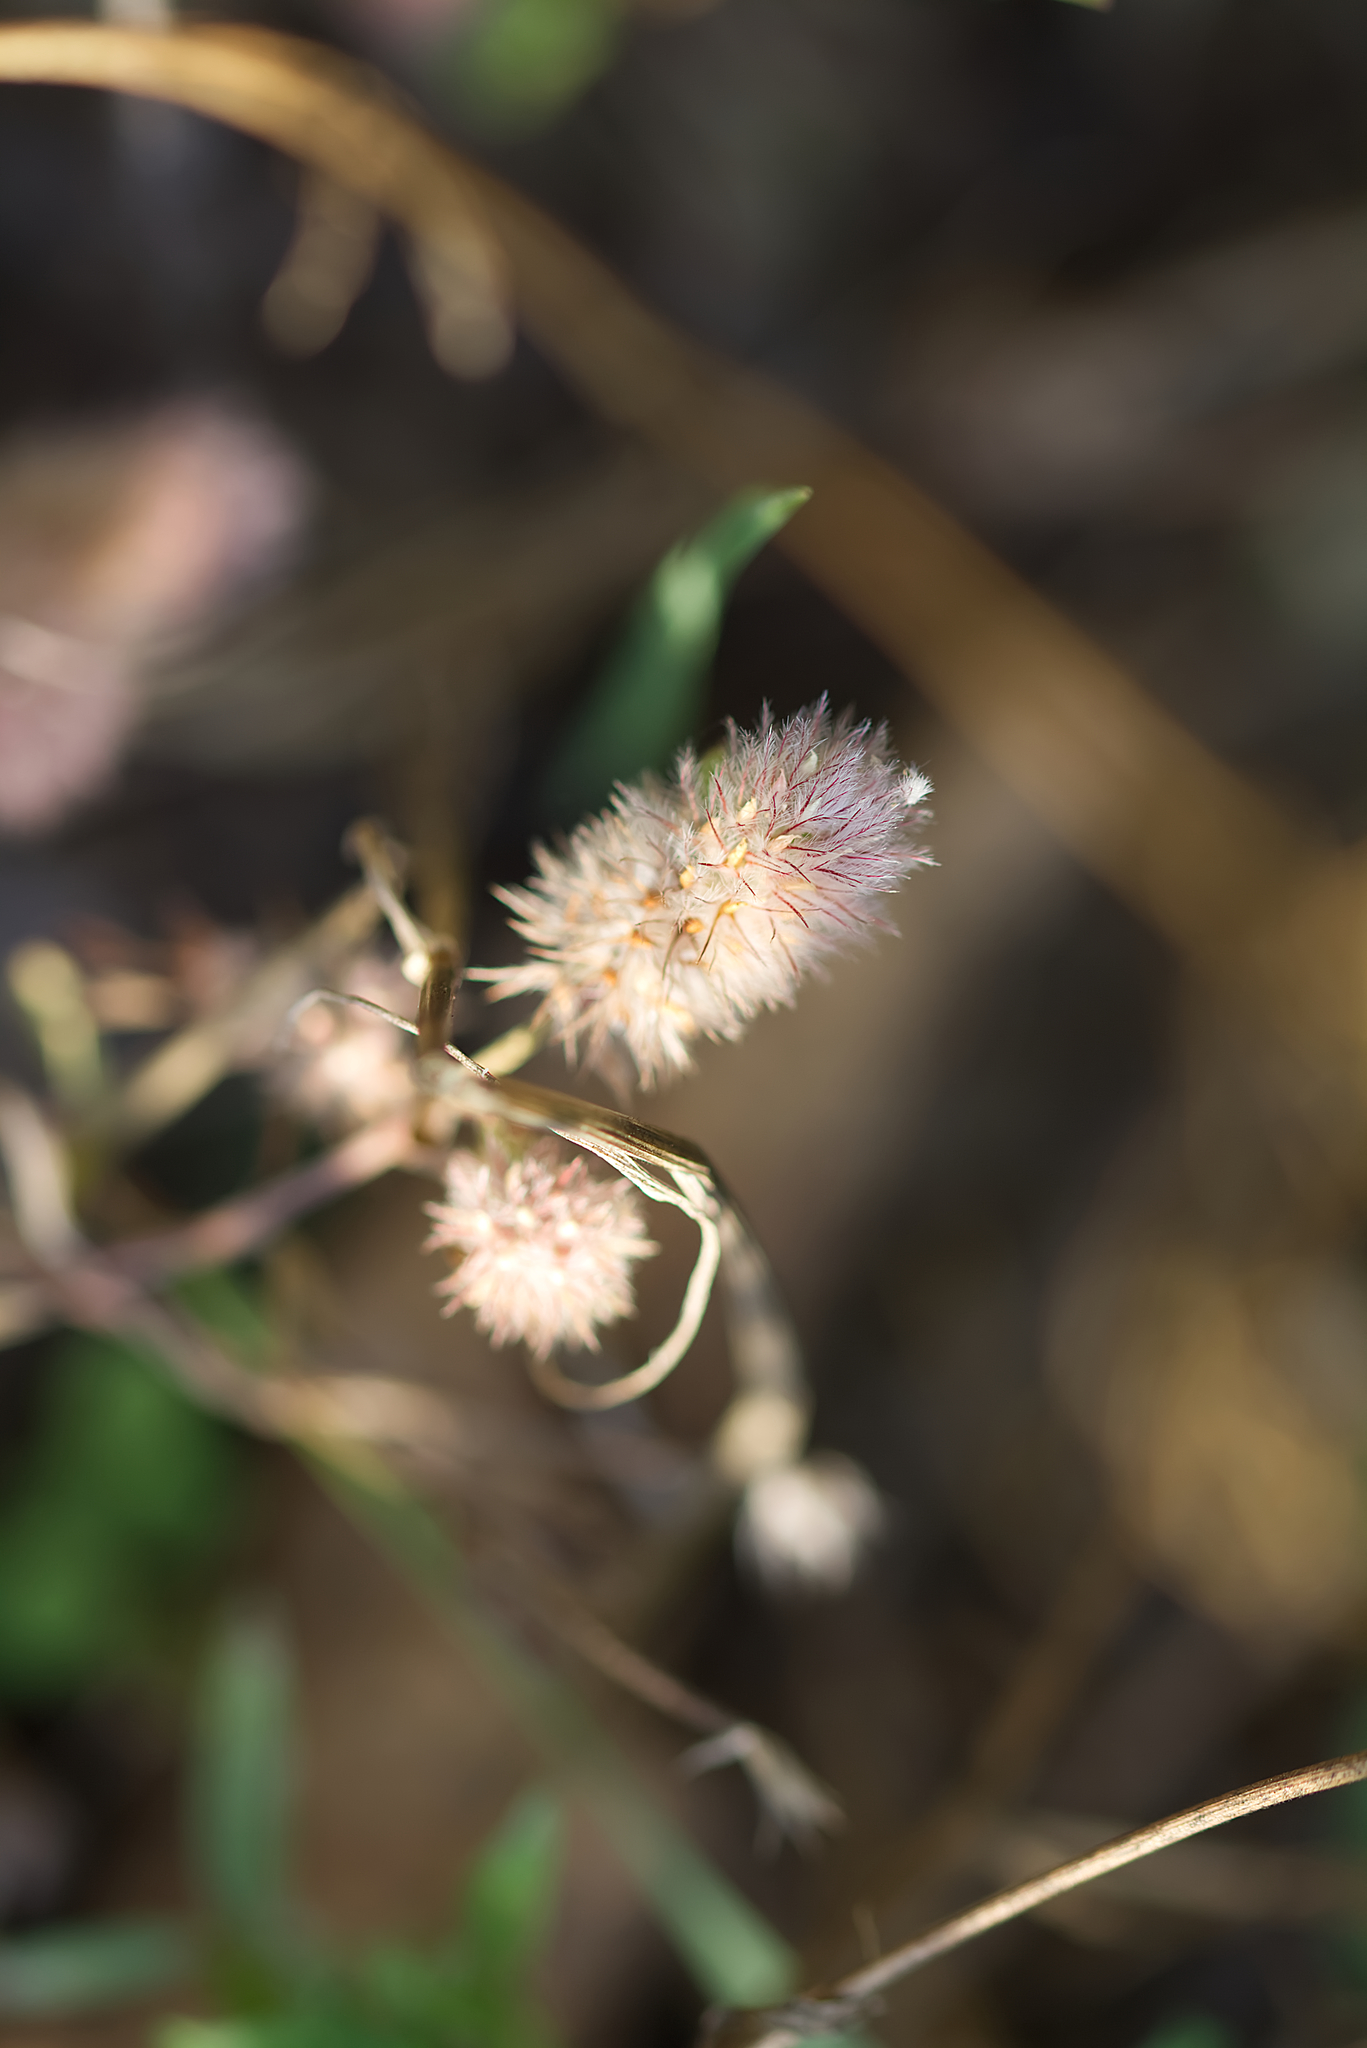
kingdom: Plantae
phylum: Tracheophyta
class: Magnoliopsida
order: Fabales
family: Fabaceae
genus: Trifolium
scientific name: Trifolium arvense
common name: Hare's-foot clover
